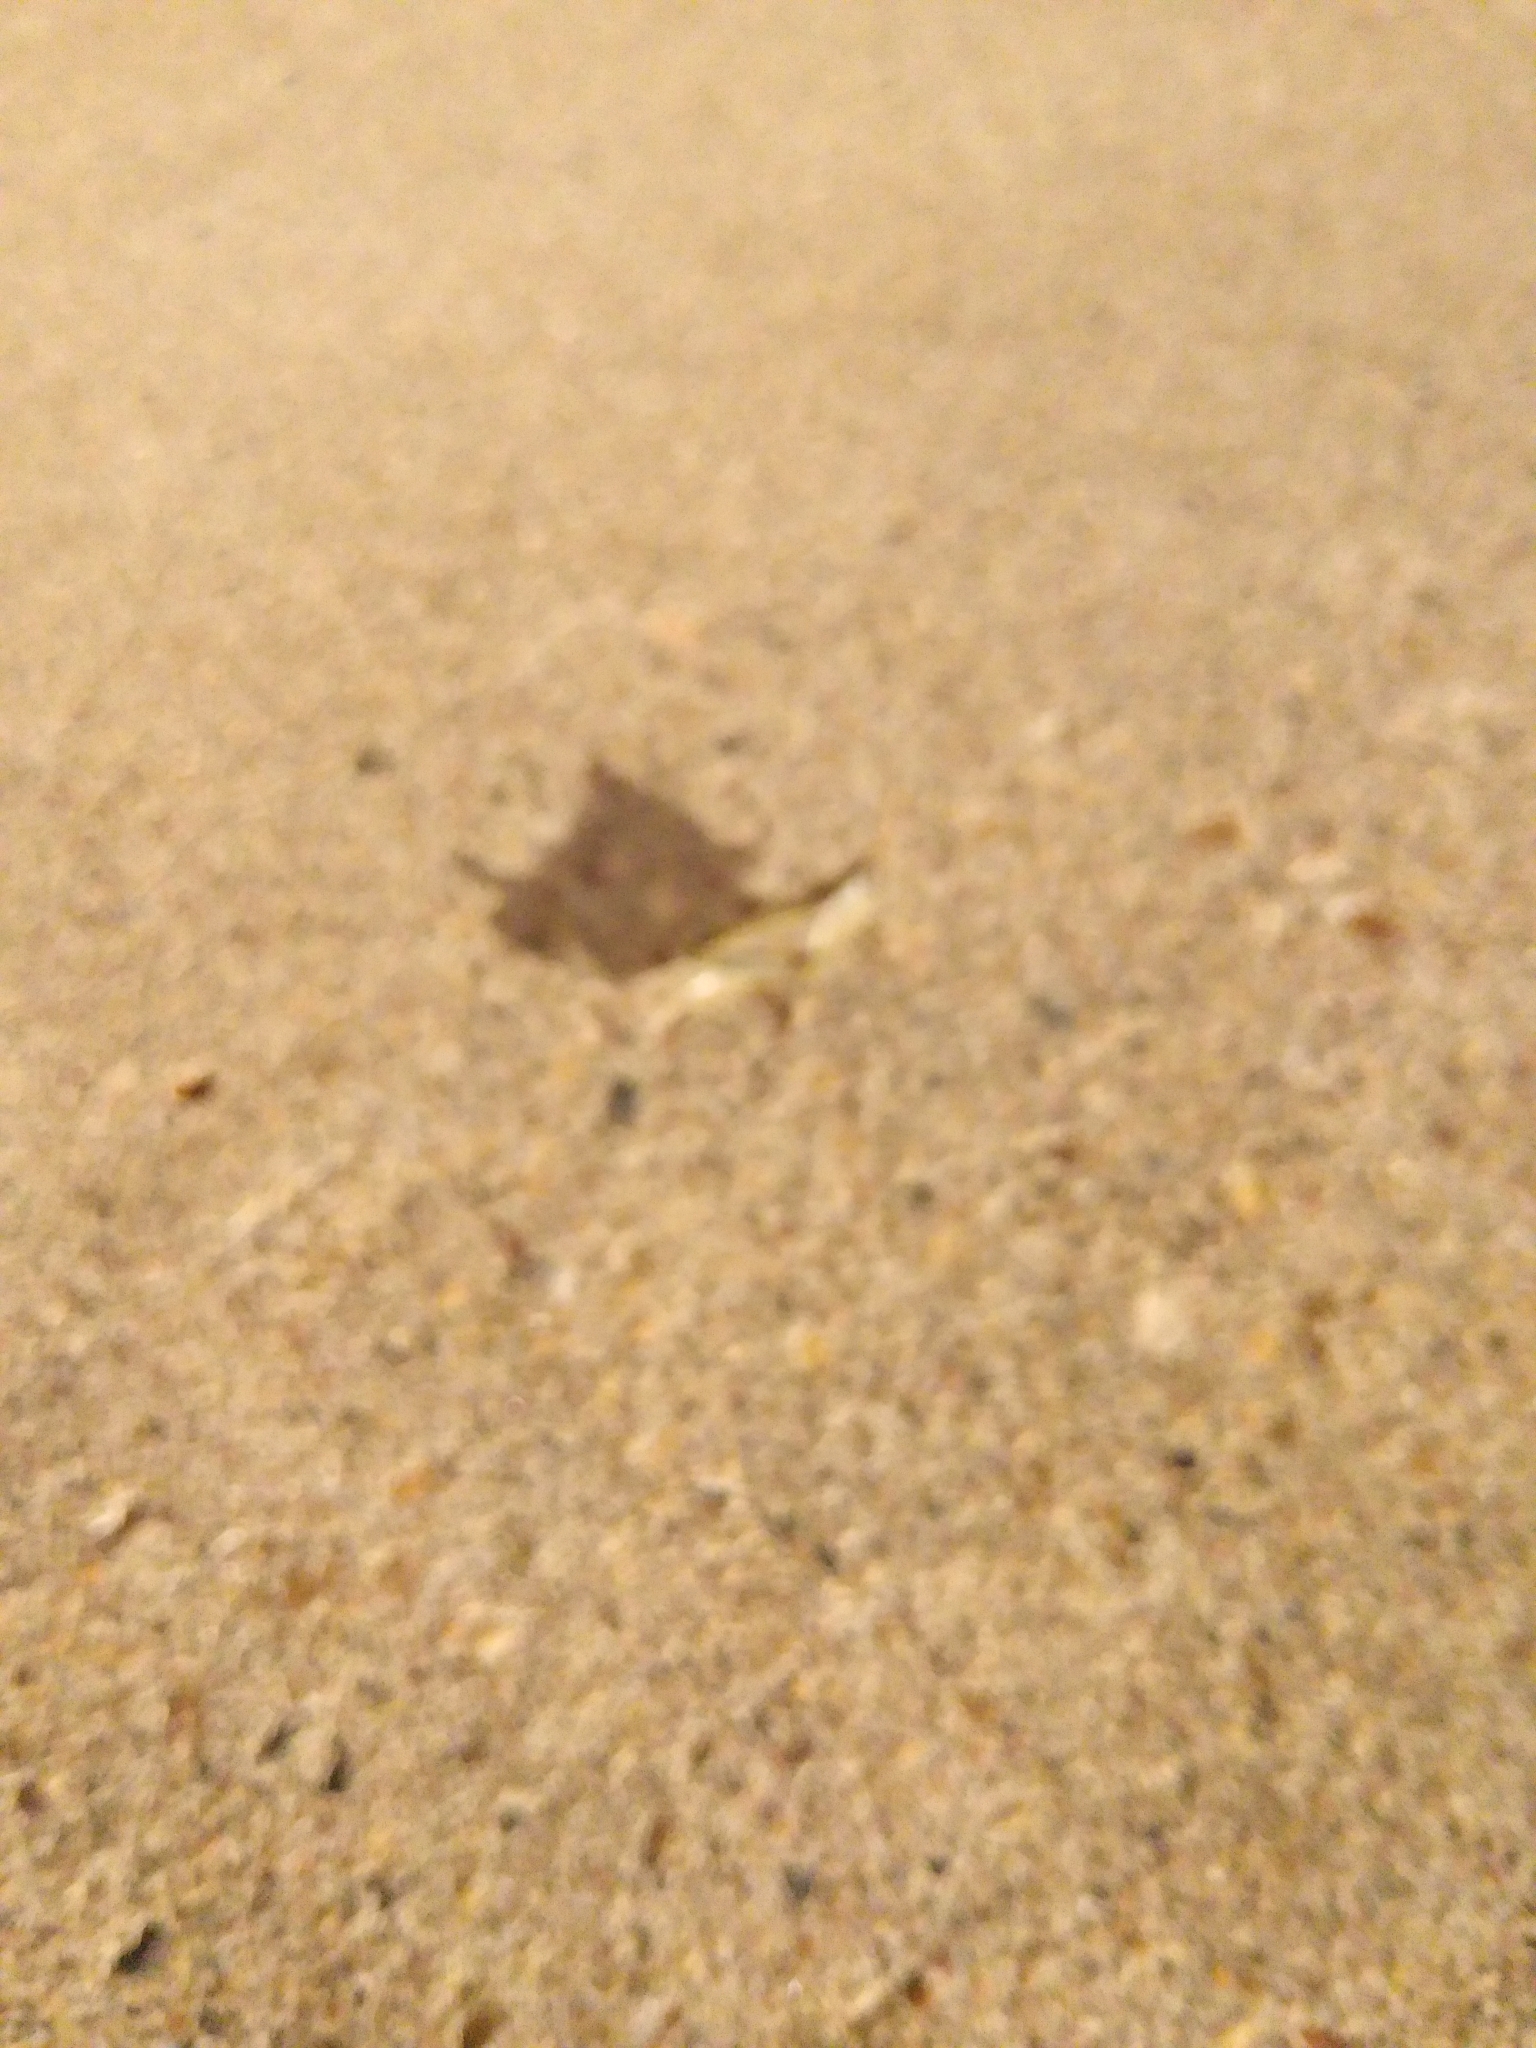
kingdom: Animalia
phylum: Arthropoda
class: Insecta
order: Orthoptera
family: Acrididae
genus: Melanoplus
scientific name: Melanoplus bivittatus
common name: Two-striped grasshopper
